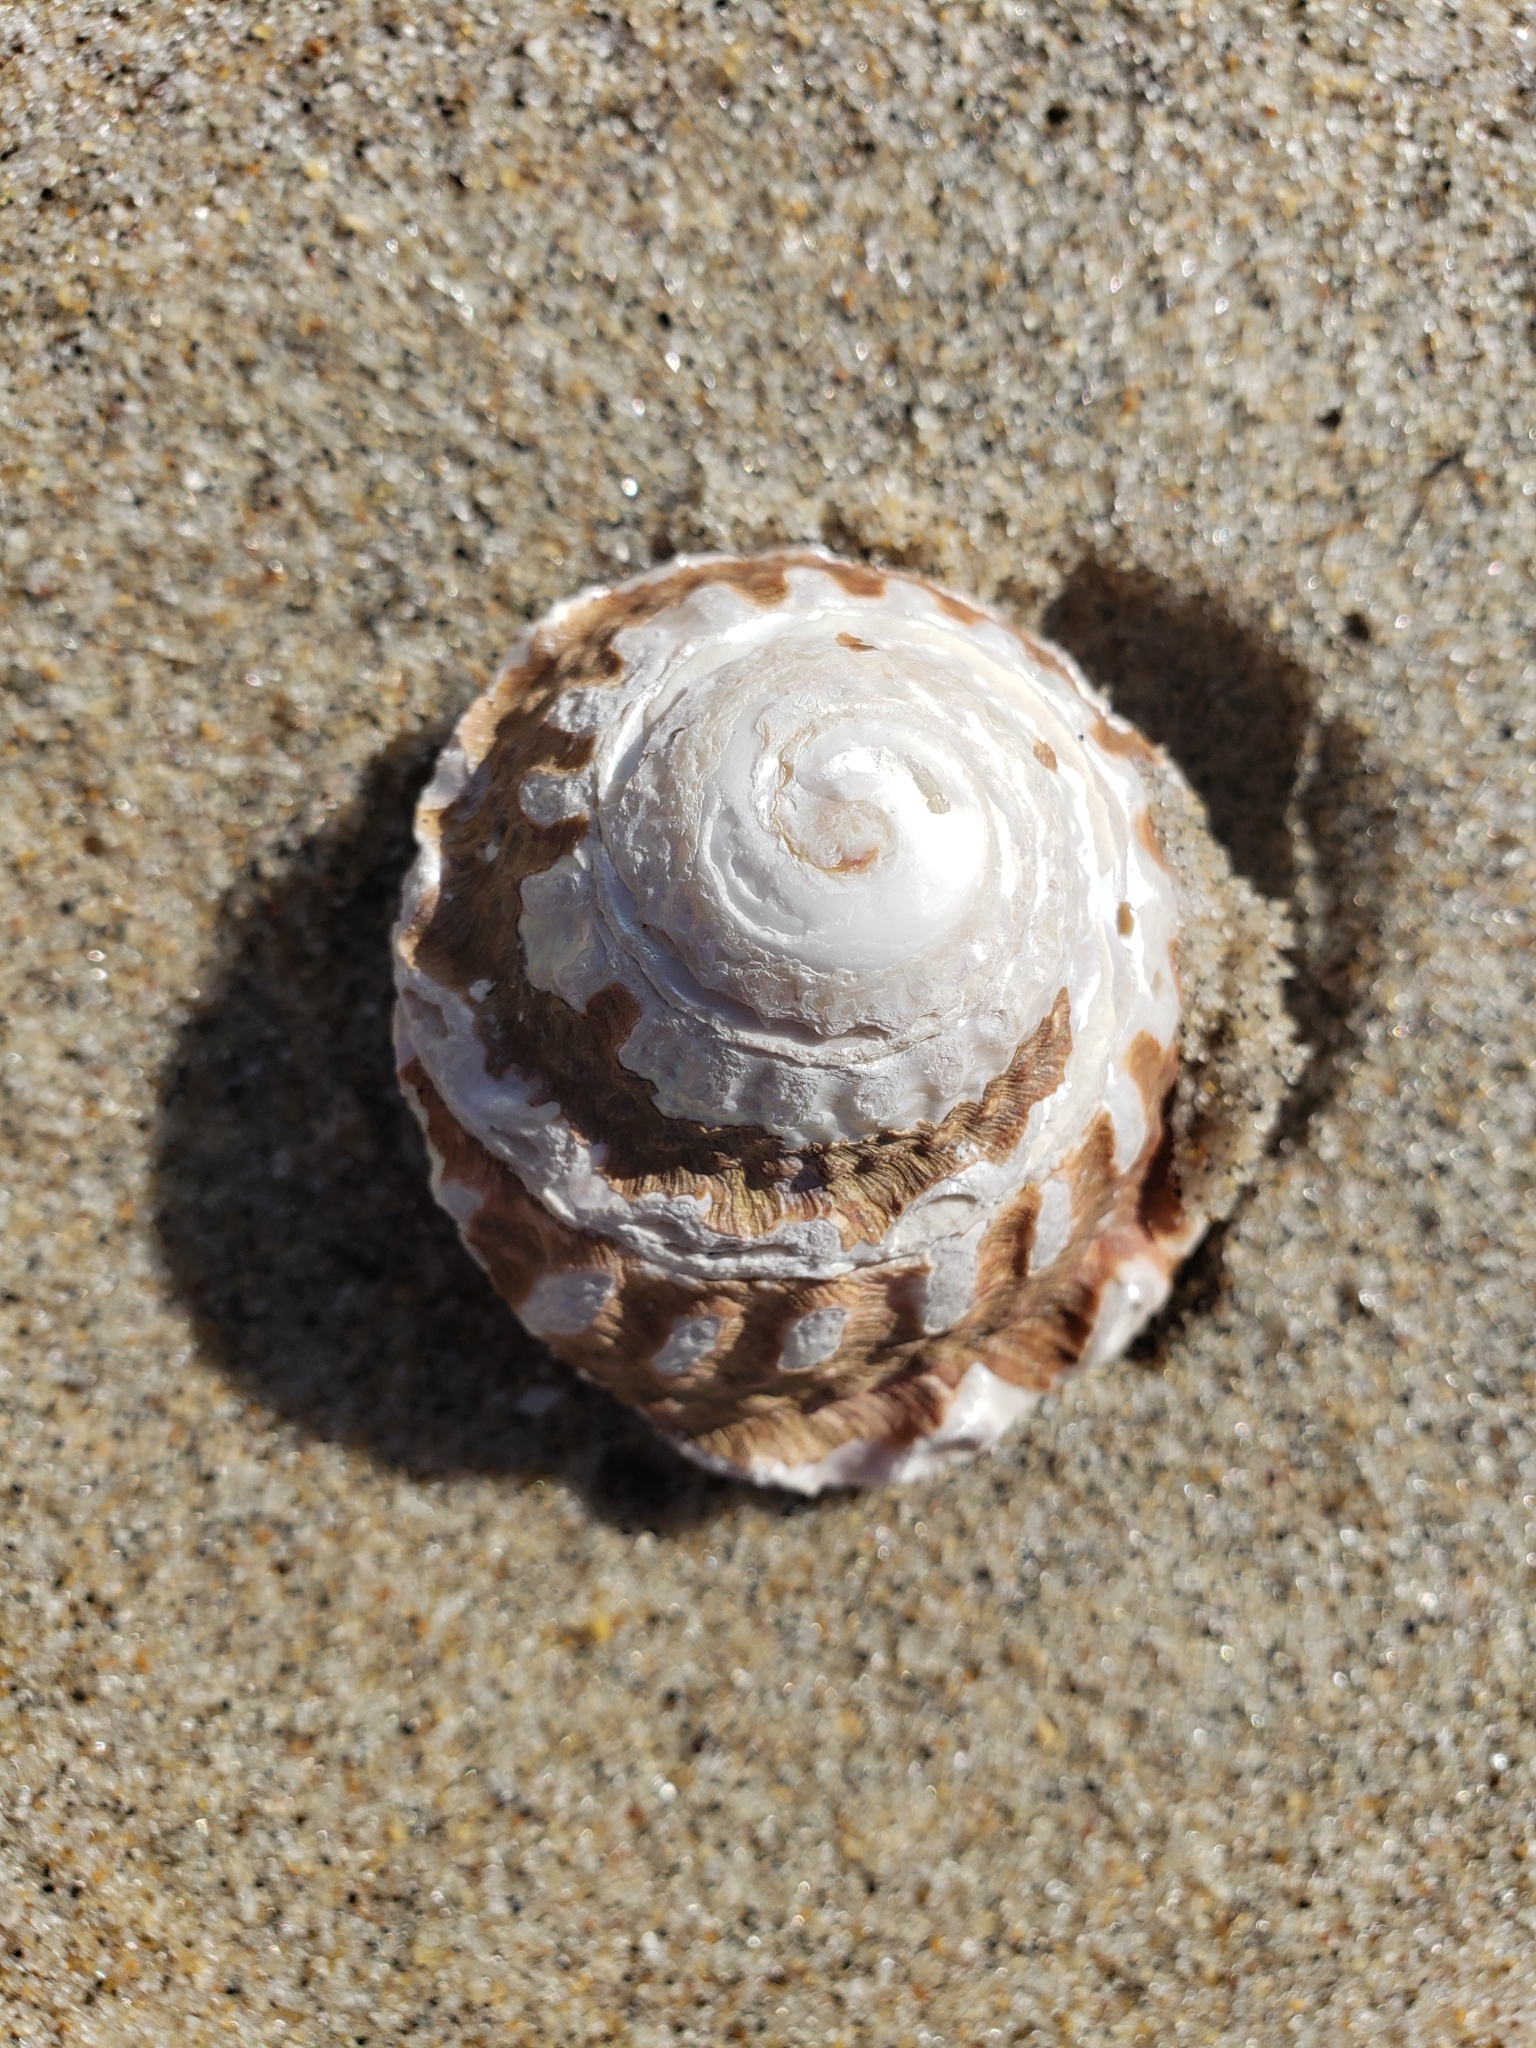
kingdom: Animalia
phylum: Mollusca
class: Gastropoda
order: Trochida
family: Turbinidae
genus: Megastraea
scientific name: Megastraea undosa
